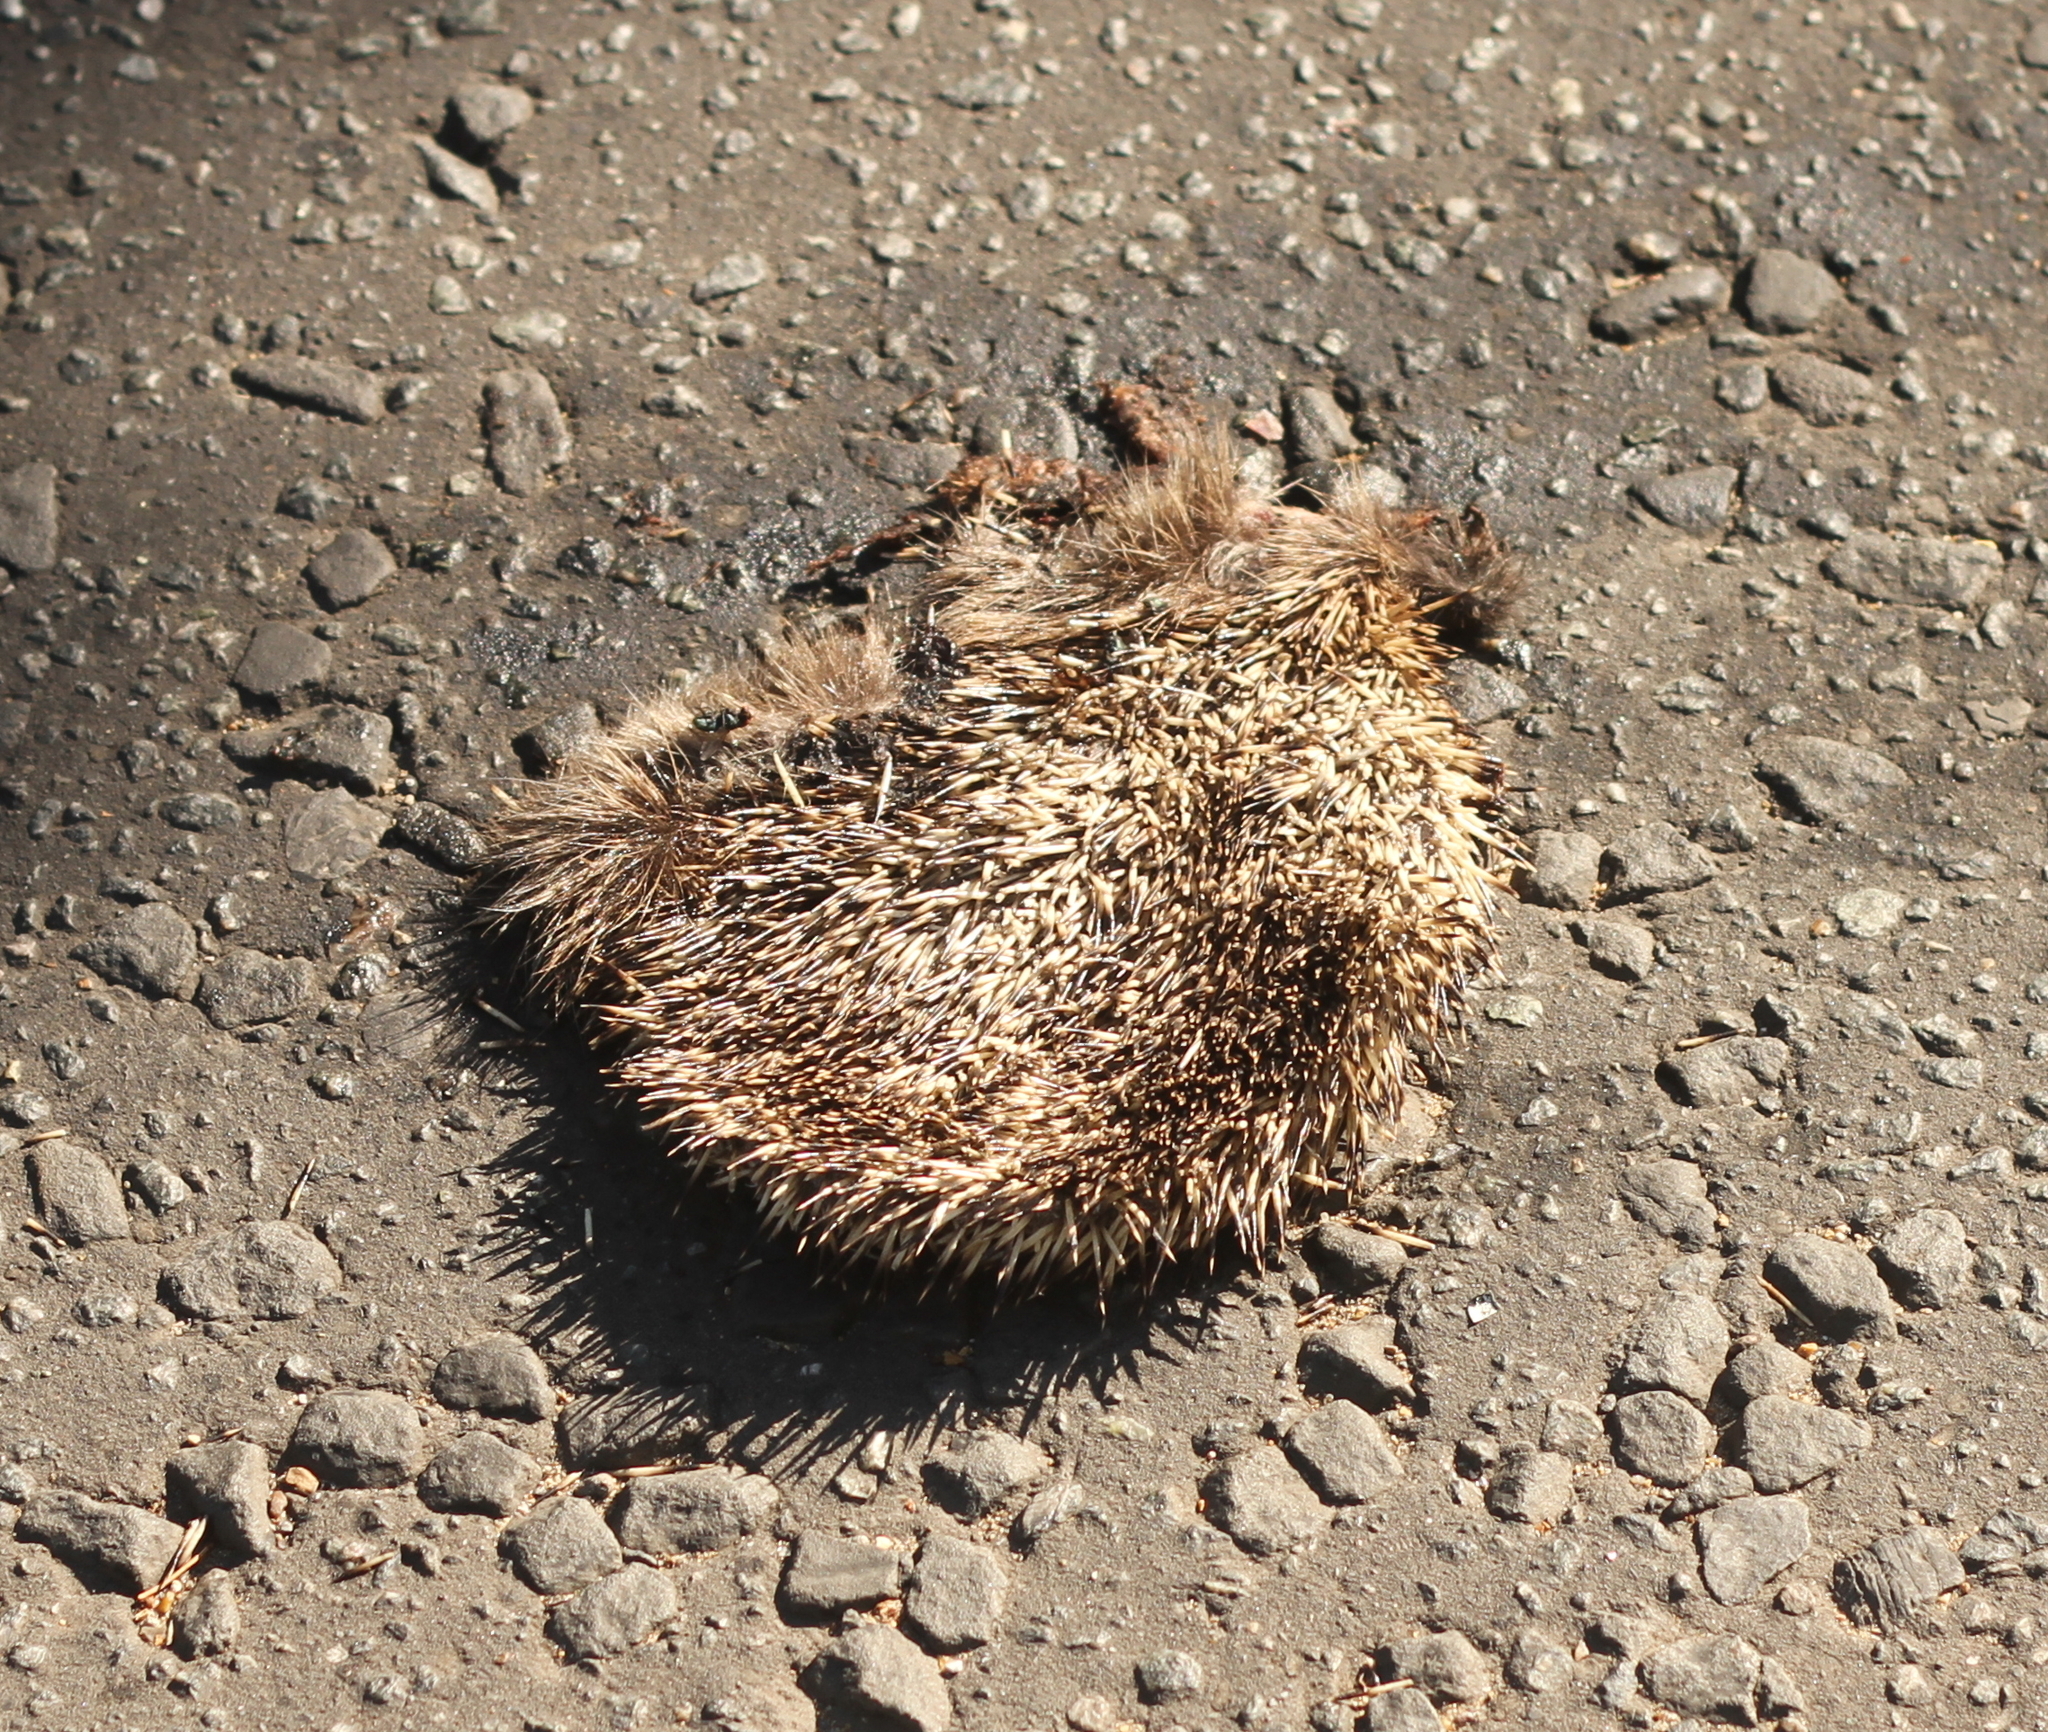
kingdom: Animalia
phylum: Chordata
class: Mammalia
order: Erinaceomorpha
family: Erinaceidae
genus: Erinaceus
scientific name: Erinaceus europaeus
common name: West european hedgehog
